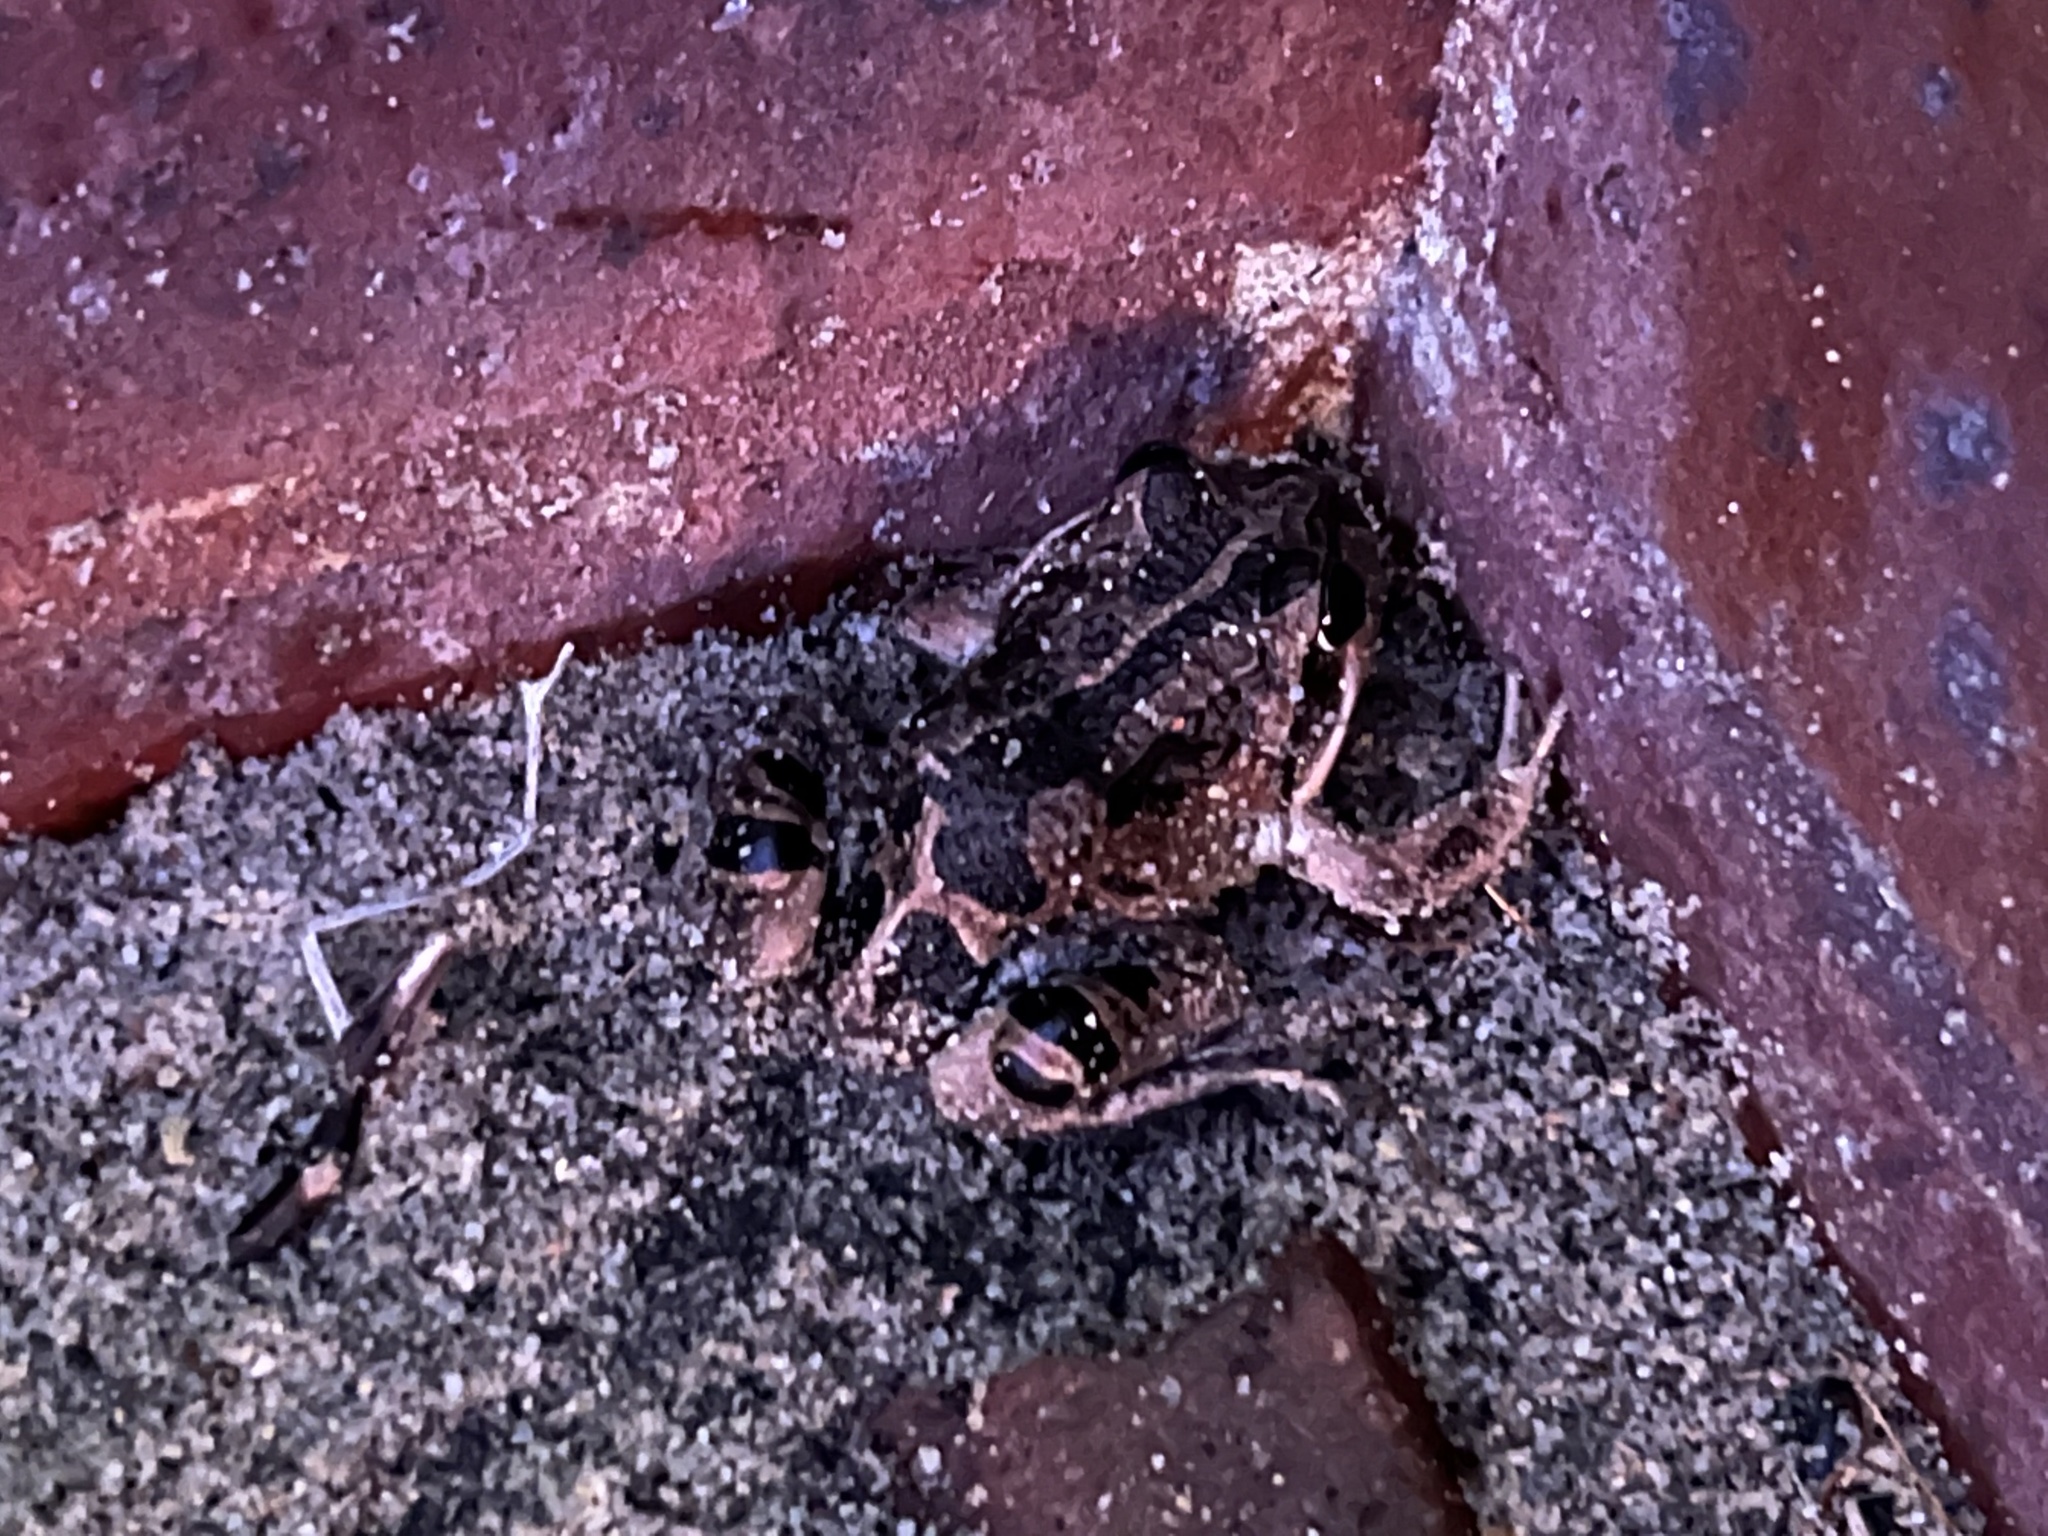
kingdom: Animalia
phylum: Chordata
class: Amphibia
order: Anura
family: Limnodynastidae
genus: Limnodynastes
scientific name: Limnodynastes dorsalis
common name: Banjo frog
